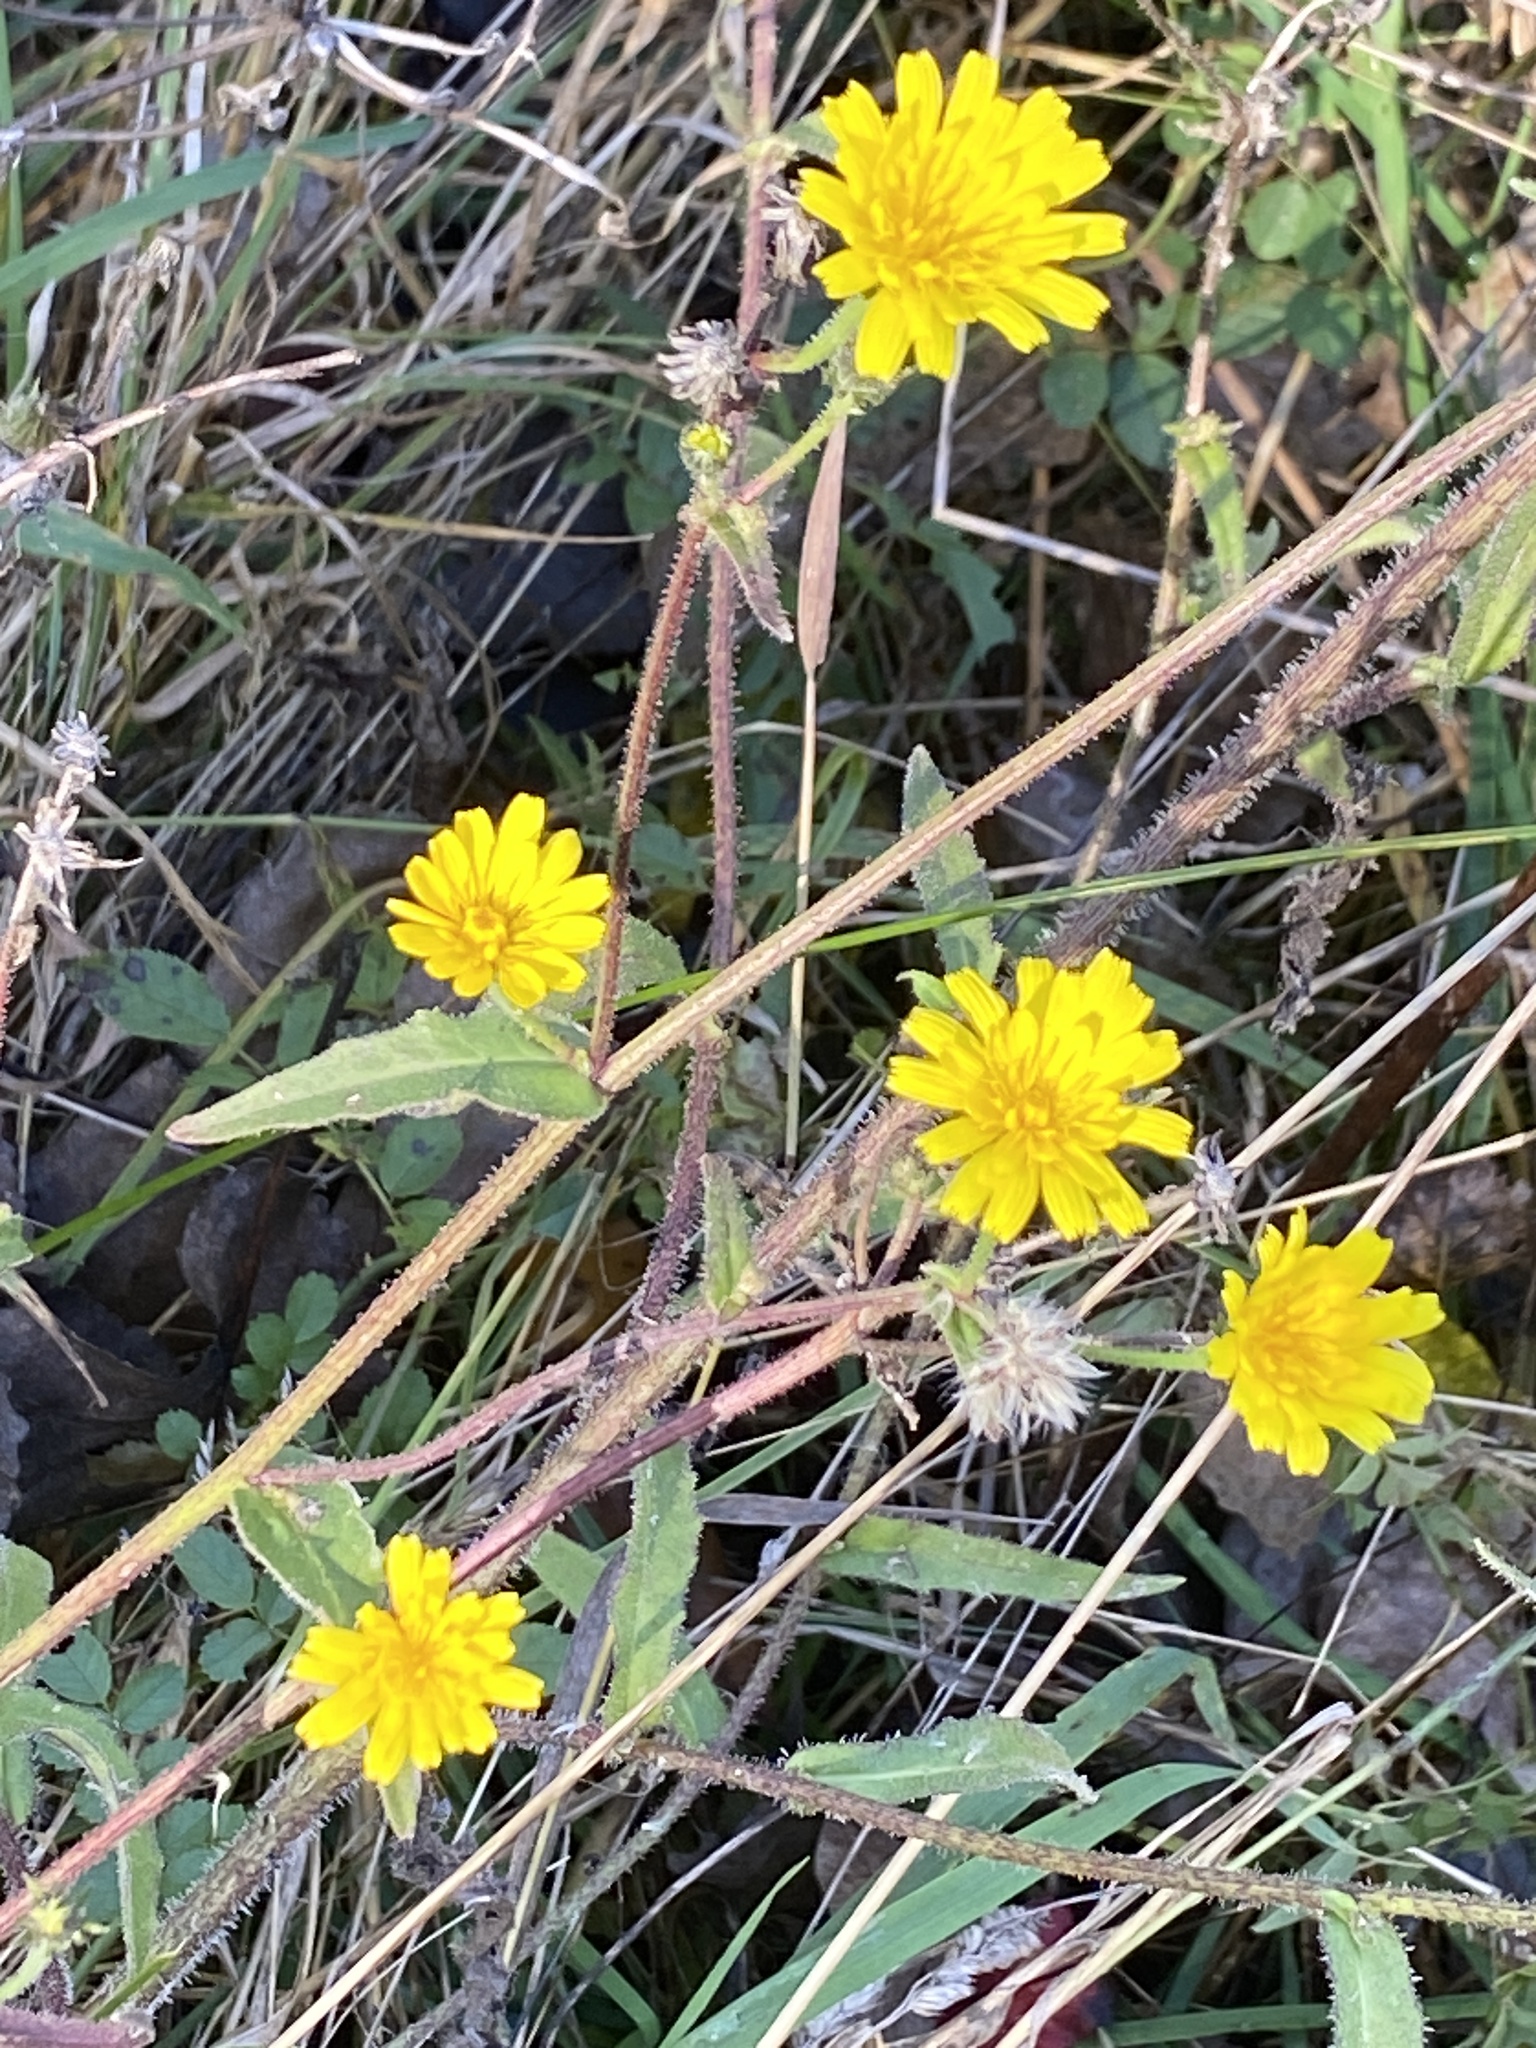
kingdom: Plantae
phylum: Tracheophyta
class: Magnoliopsida
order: Asterales
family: Asteraceae
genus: Picris
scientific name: Picris hieracioides
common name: Hawkweed oxtongue
